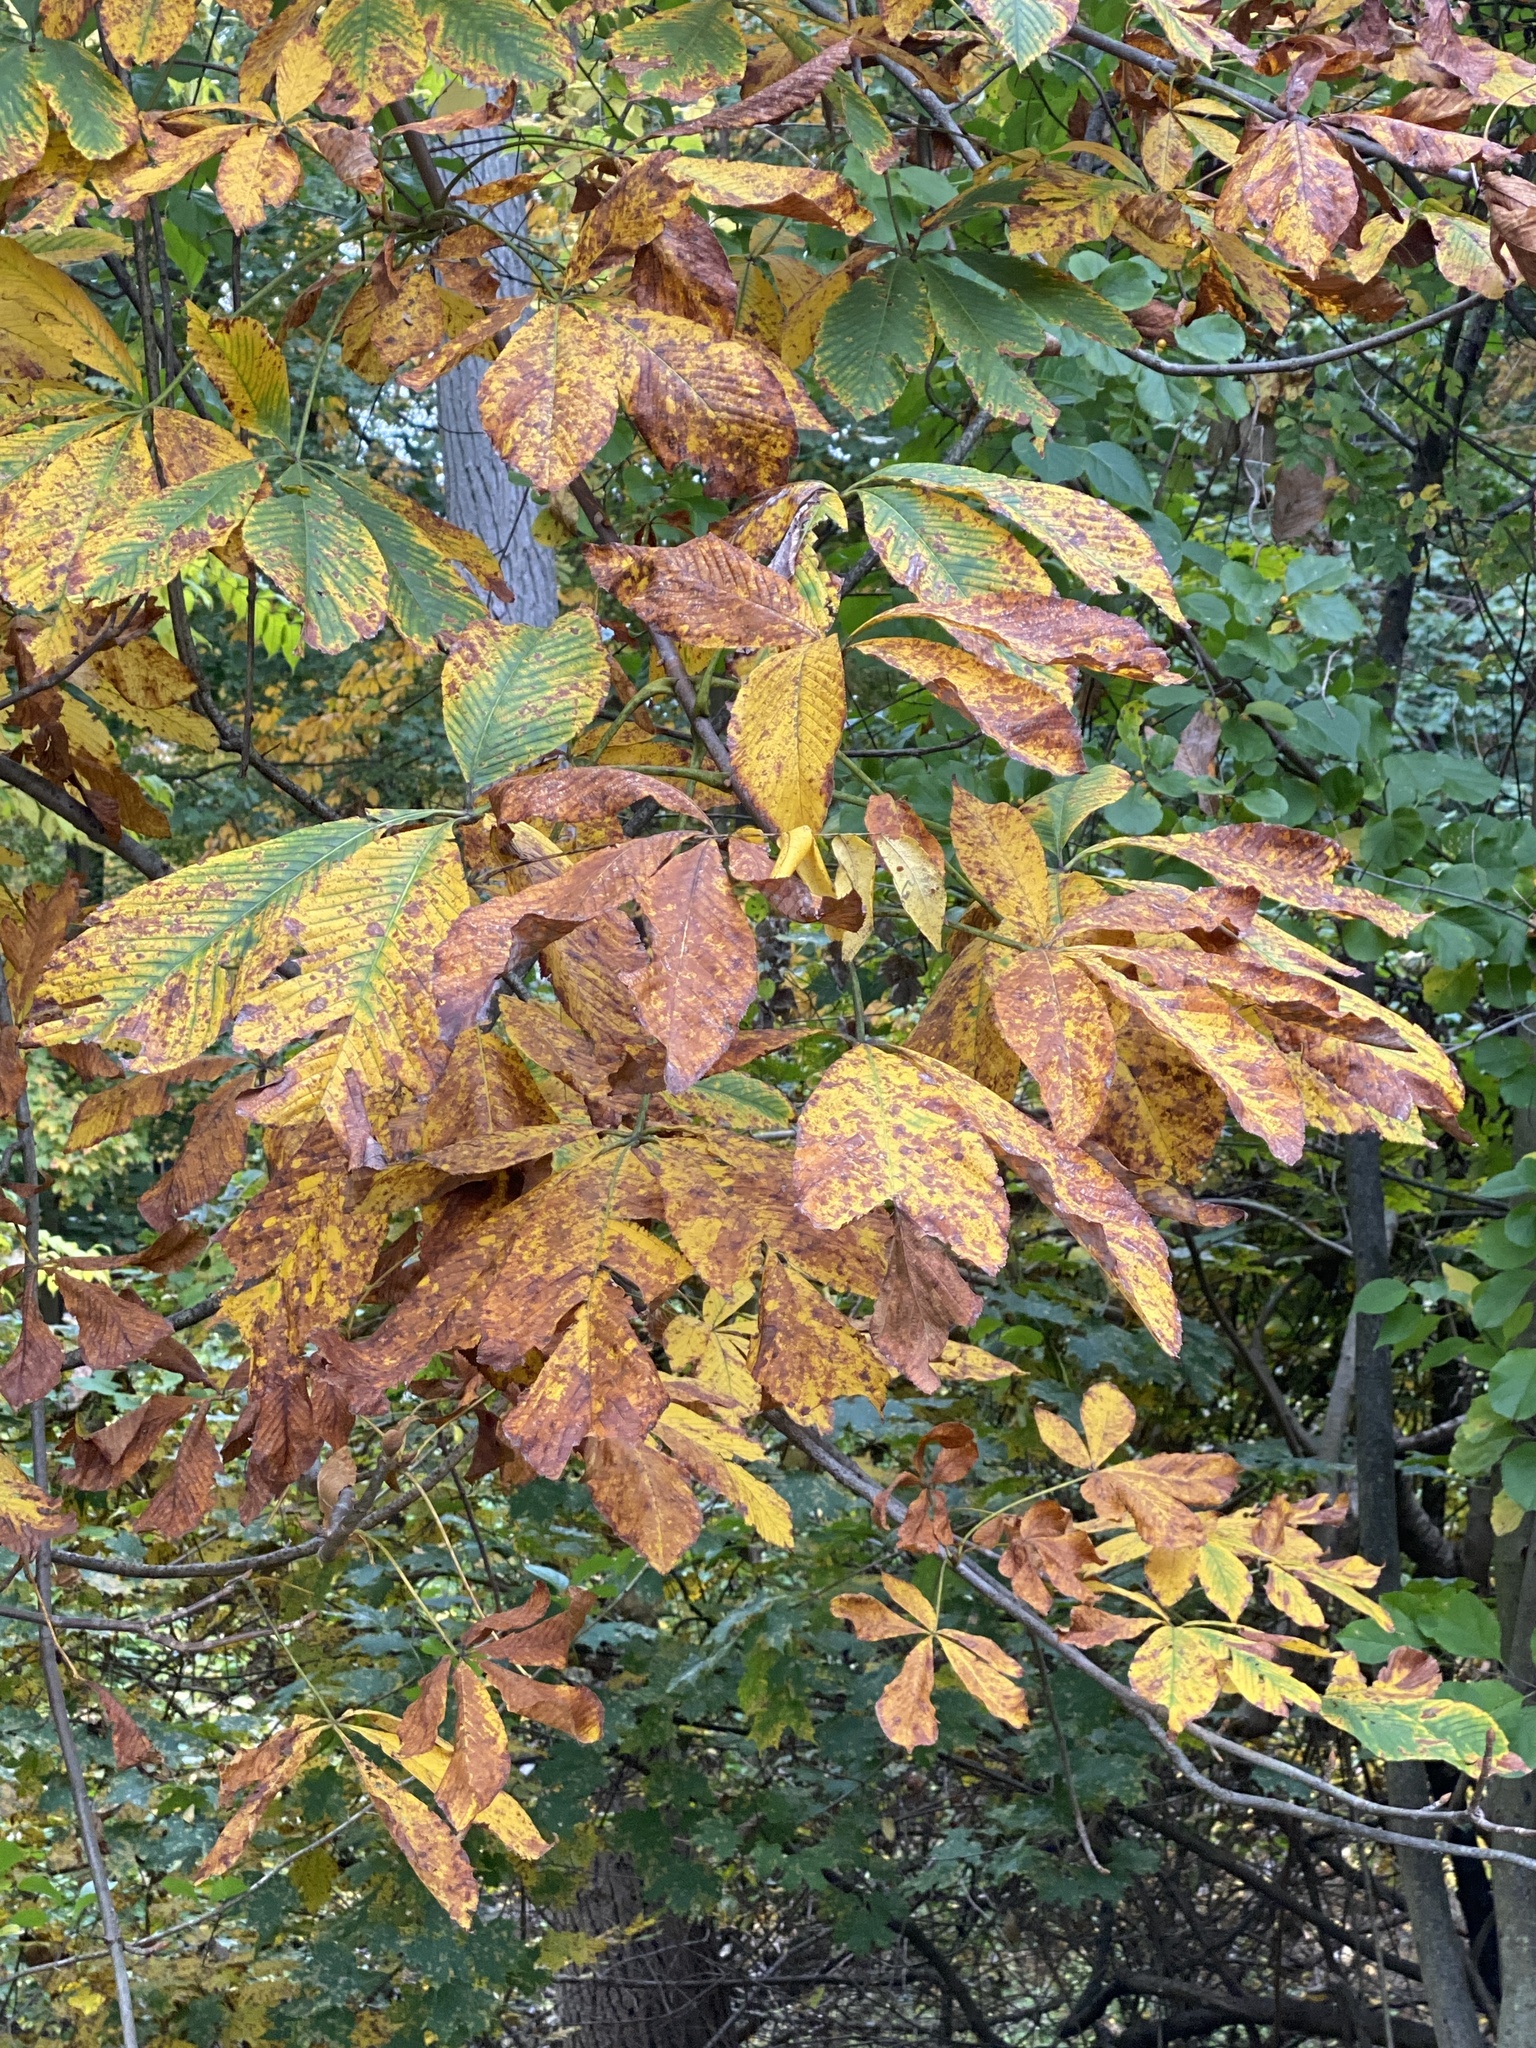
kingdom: Plantae
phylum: Tracheophyta
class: Magnoliopsida
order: Sapindales
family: Sapindaceae
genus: Aesculus
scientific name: Aesculus flava
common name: Yellow buckeye
